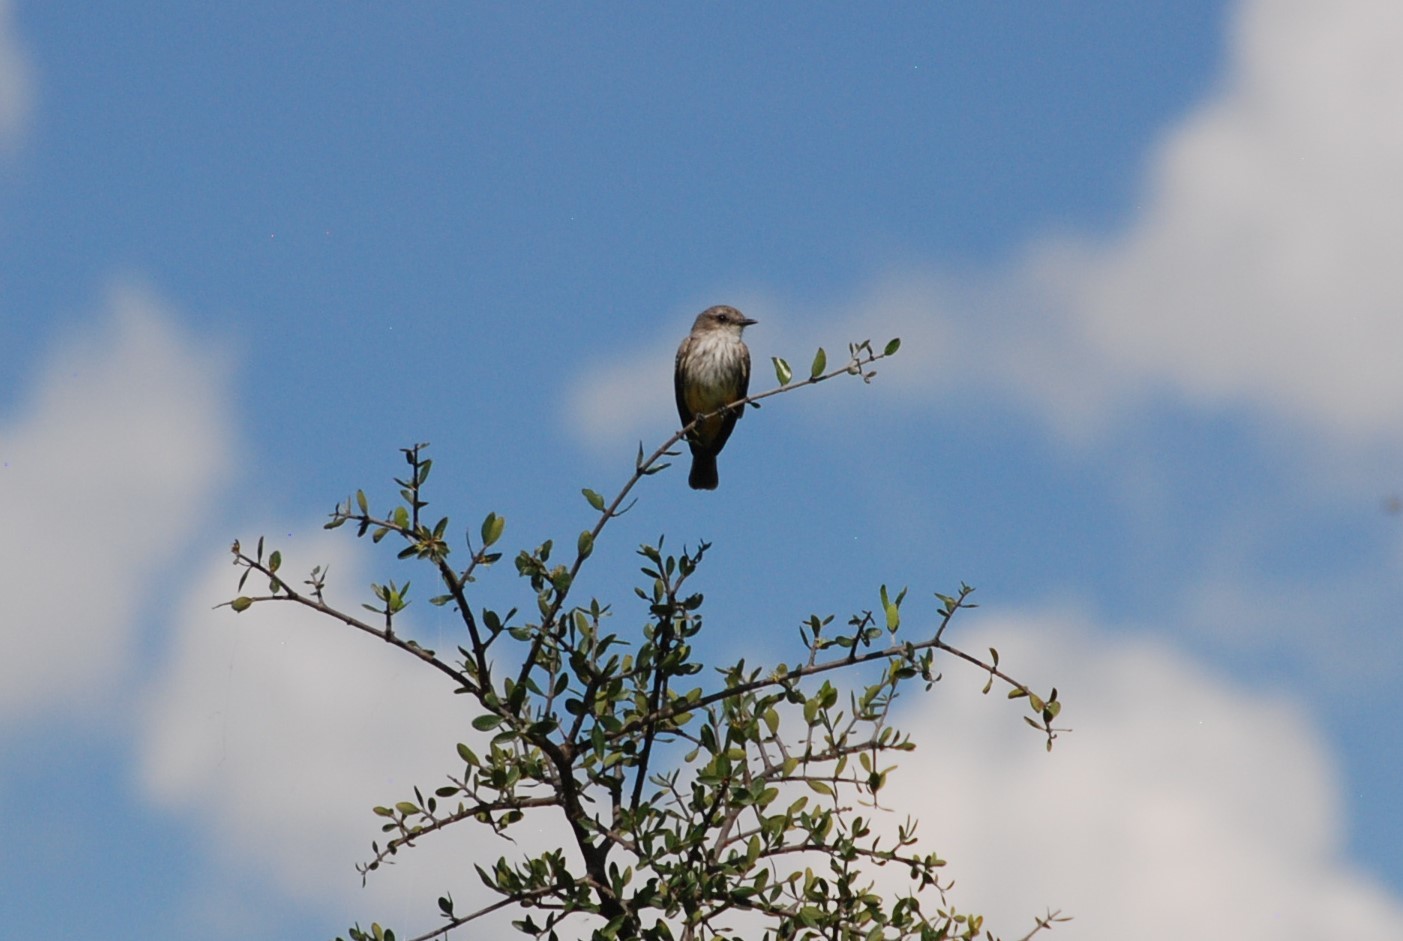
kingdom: Animalia
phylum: Chordata
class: Aves
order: Passeriformes
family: Tyrannidae
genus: Pyrocephalus
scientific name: Pyrocephalus rubinus
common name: Vermilion flycatcher
